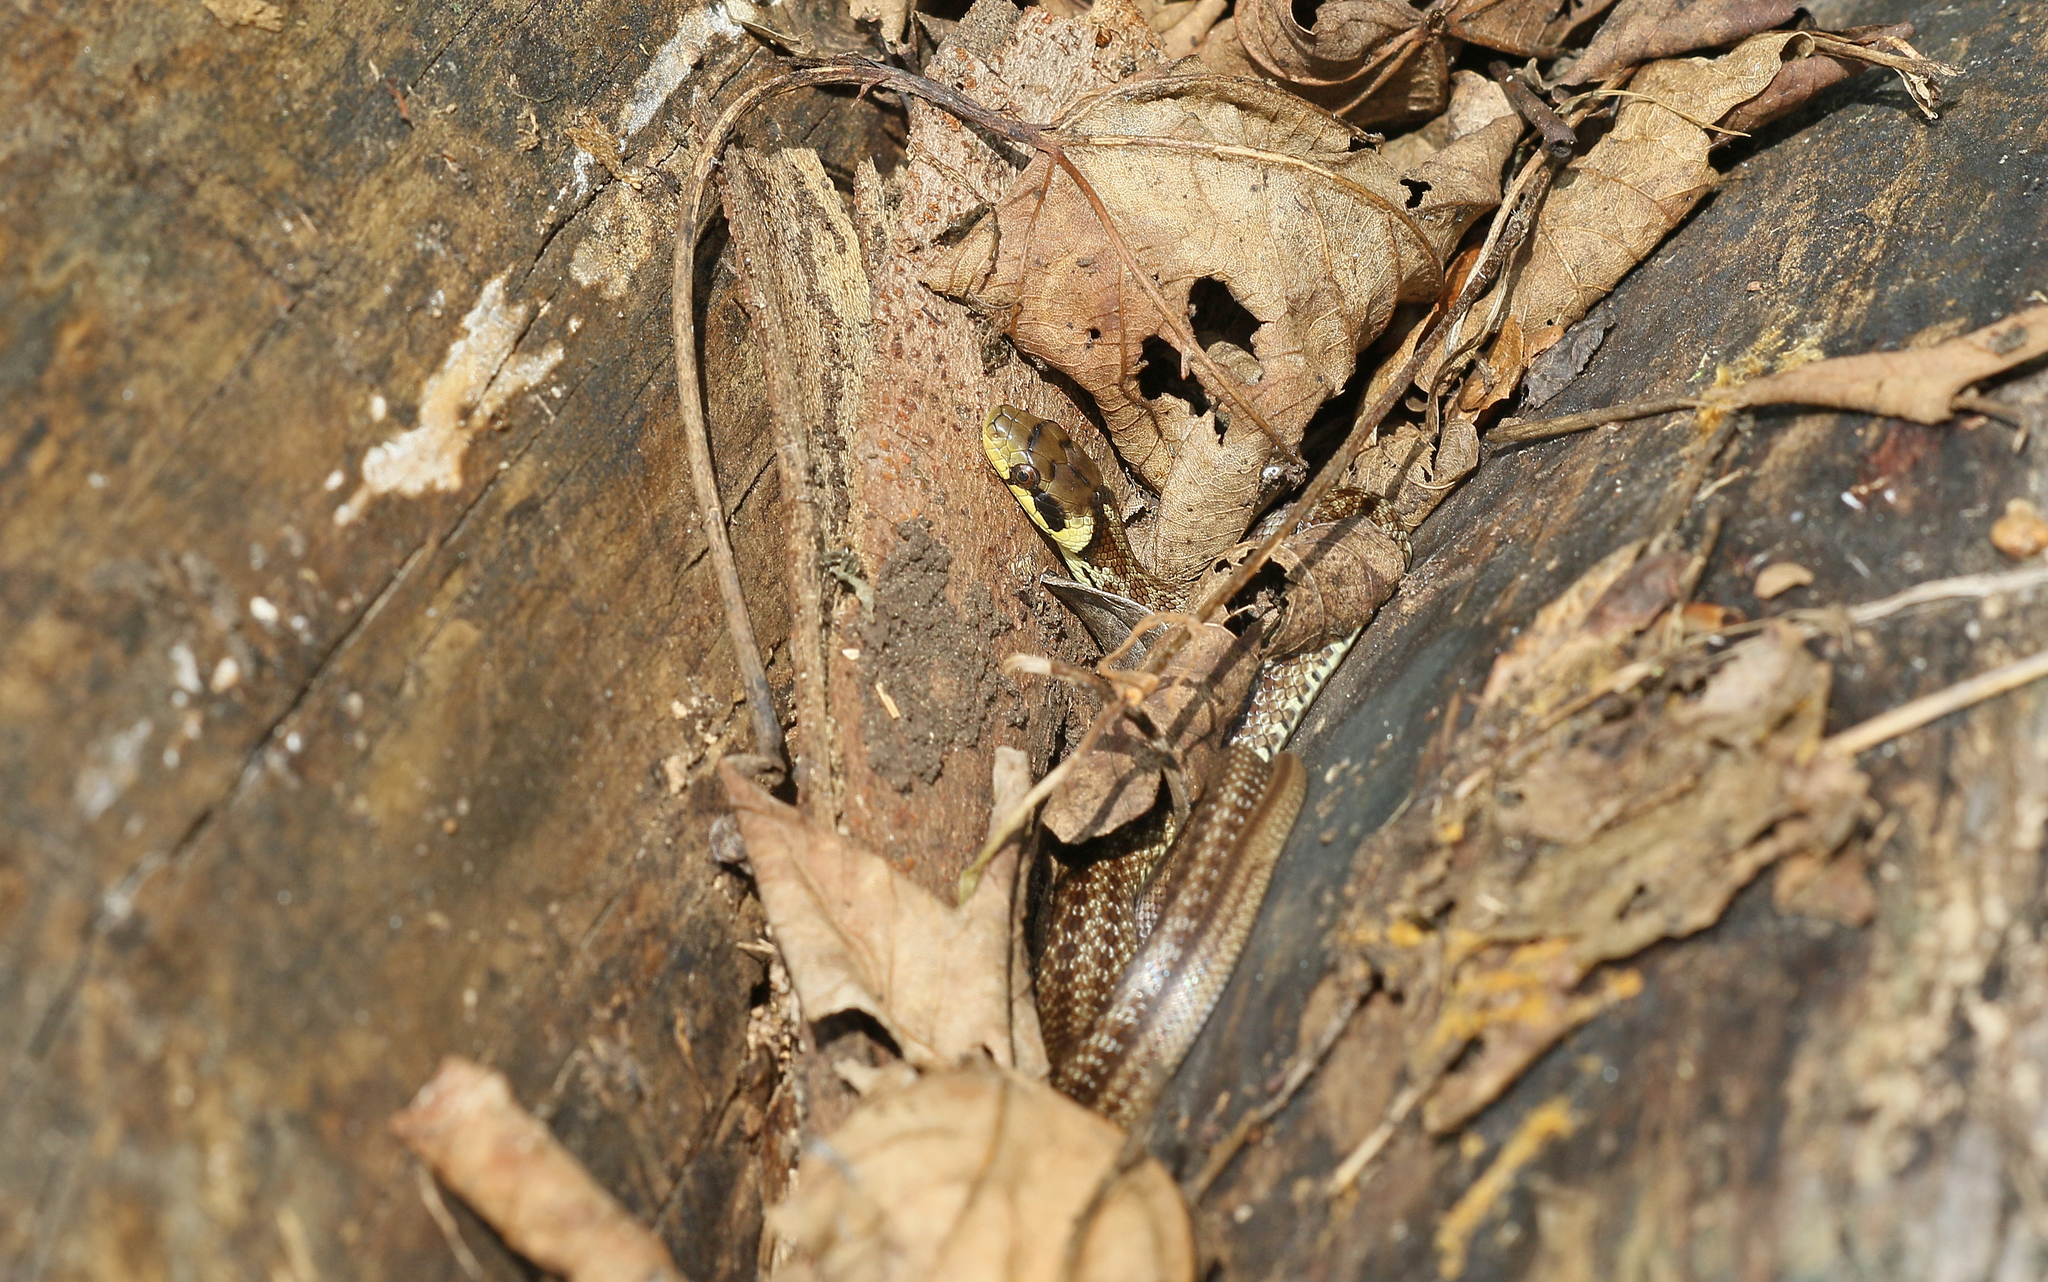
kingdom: Animalia
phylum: Chordata
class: Squamata
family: Colubridae
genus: Zamenis
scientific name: Zamenis longissimus
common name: Aesculapean snake
